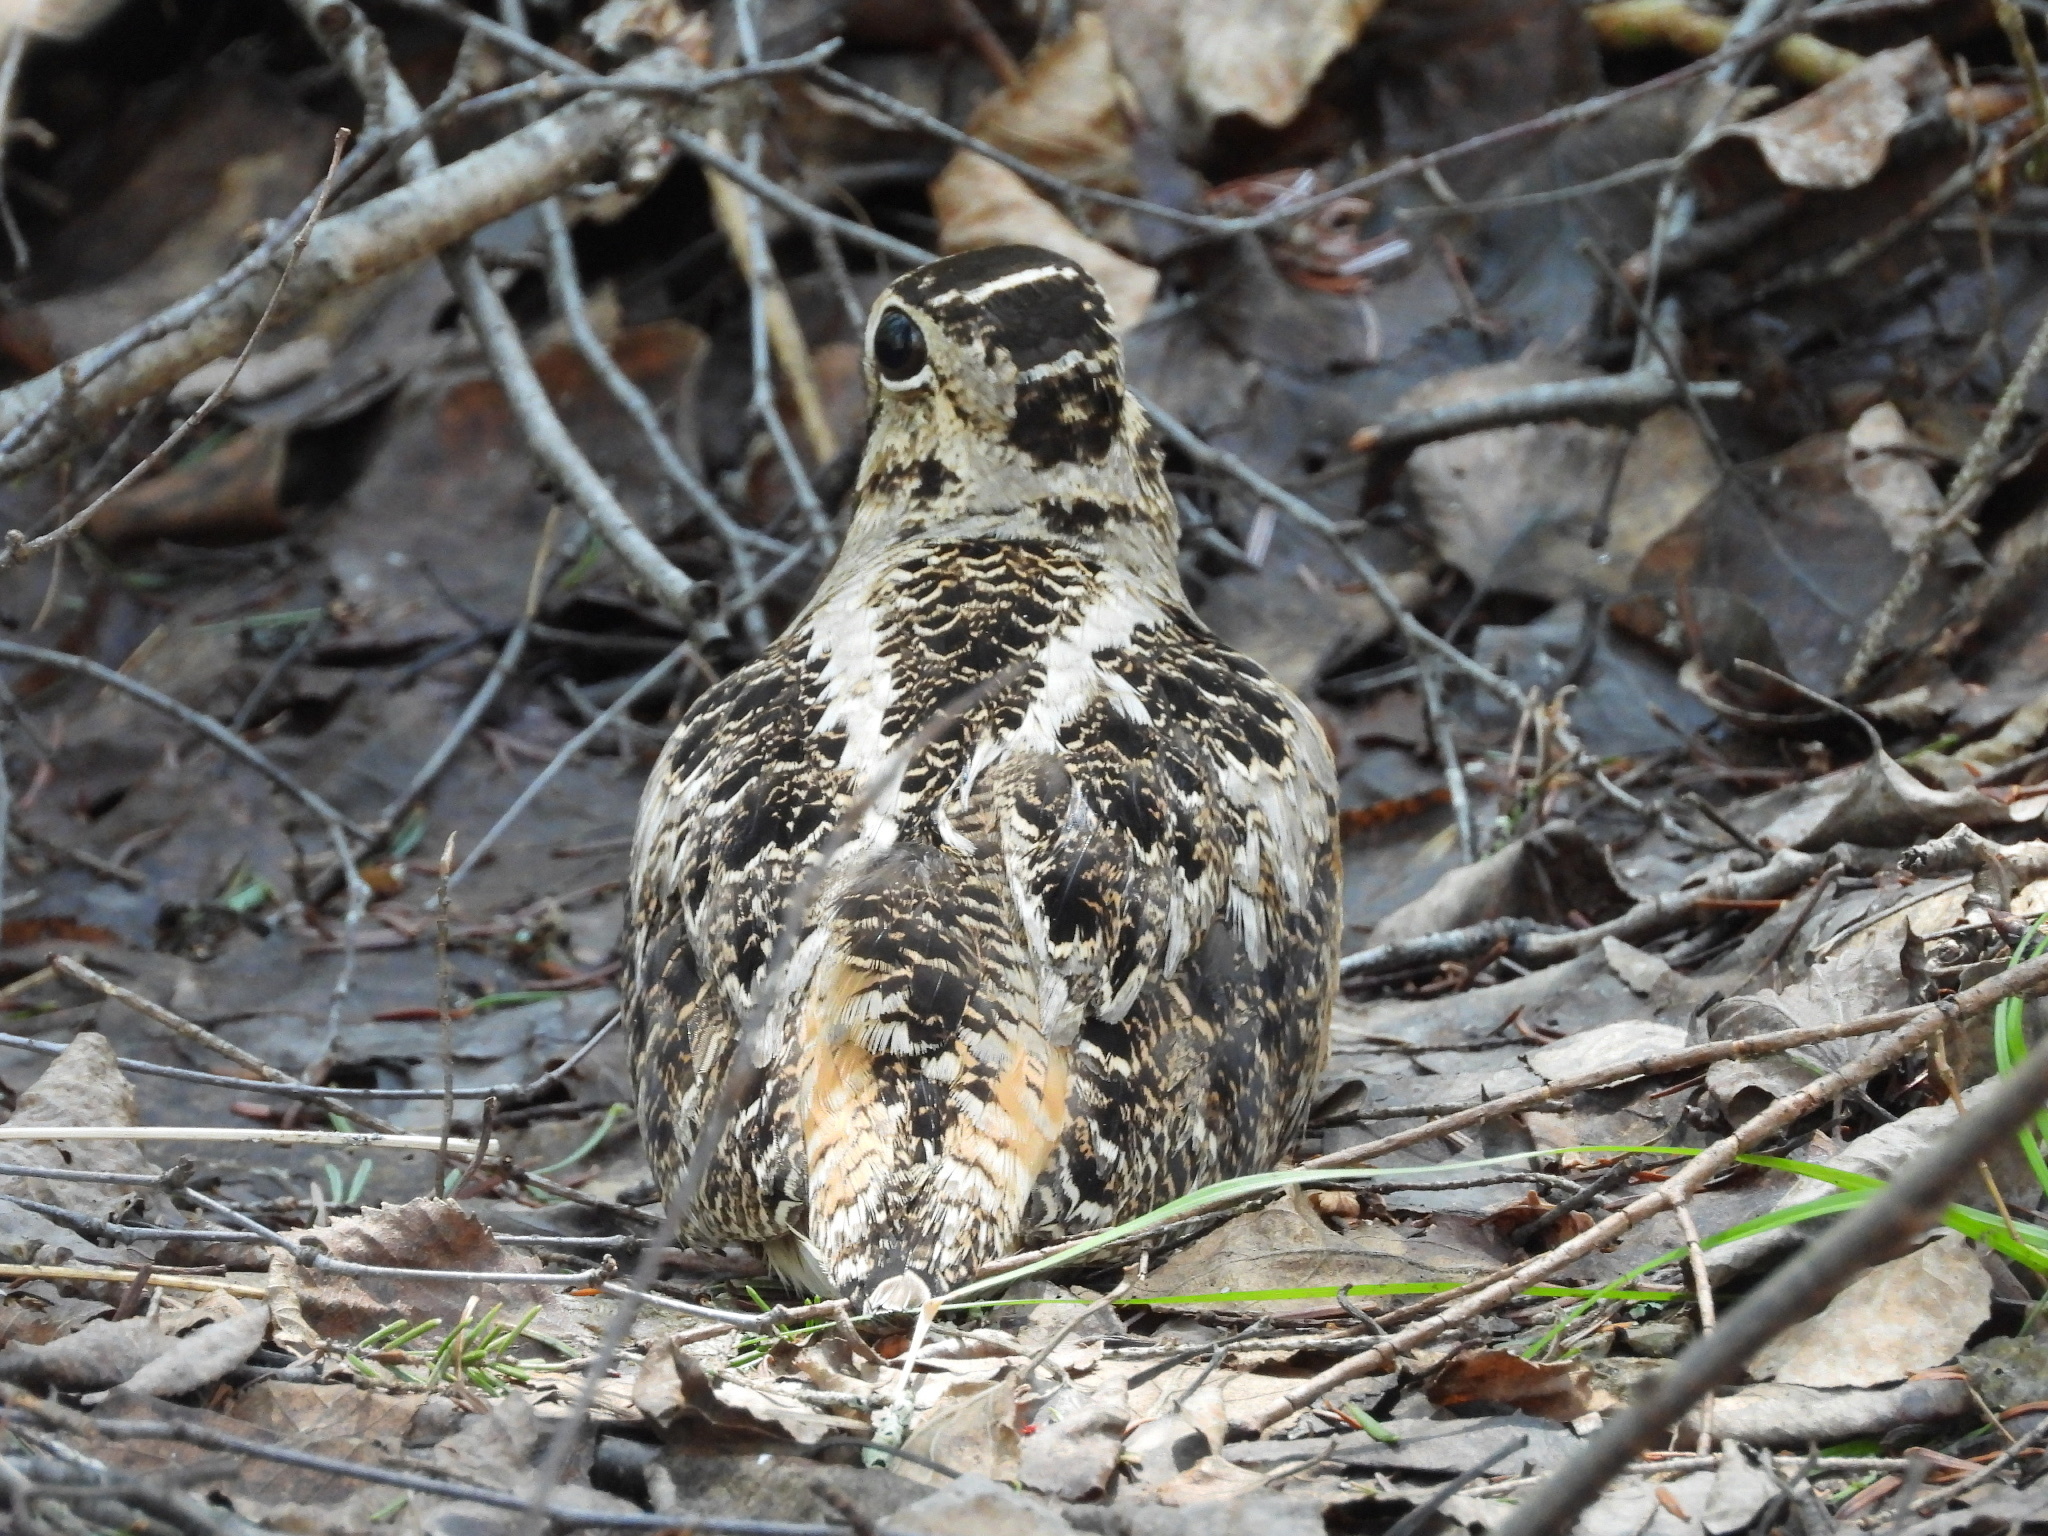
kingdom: Animalia
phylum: Chordata
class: Aves
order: Charadriiformes
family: Scolopacidae
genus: Scolopax
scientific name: Scolopax minor
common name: American woodcock
